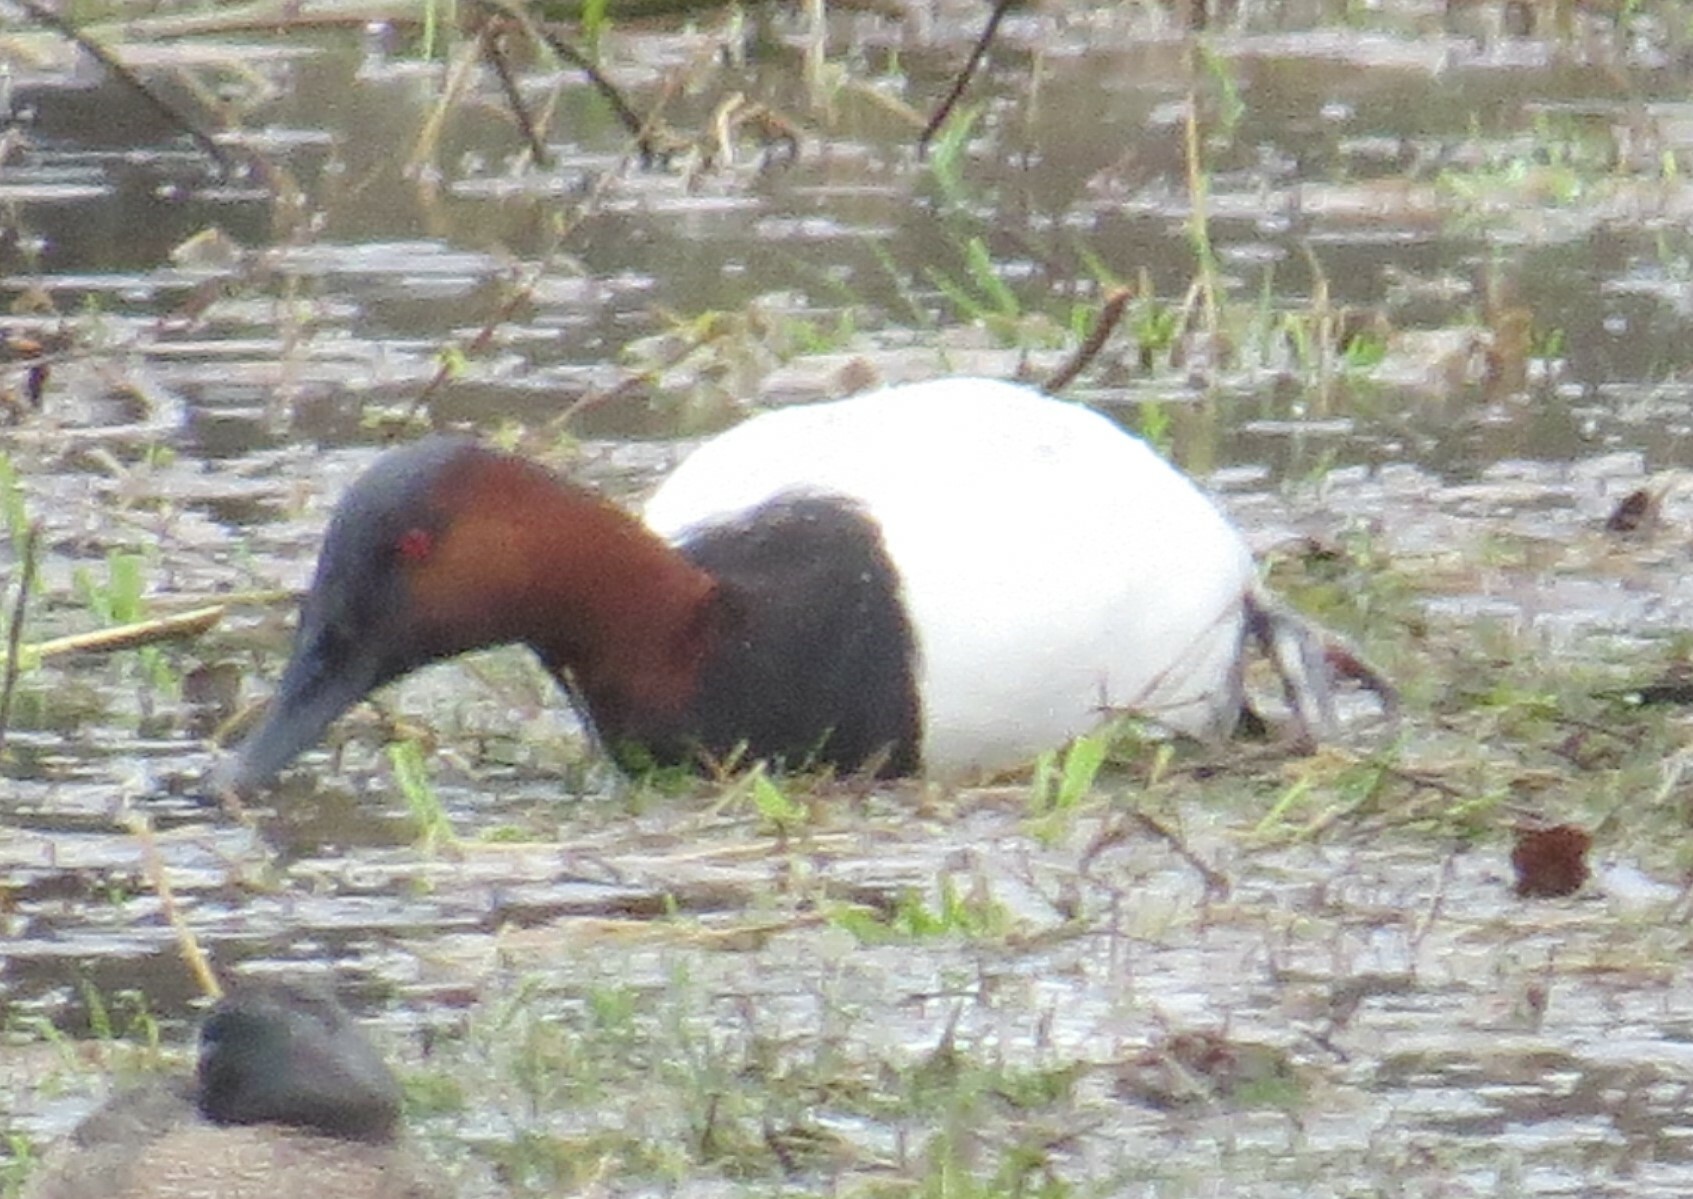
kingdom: Animalia
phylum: Chordata
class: Aves
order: Anseriformes
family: Anatidae
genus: Aythya
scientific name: Aythya valisineria
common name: Canvasback
